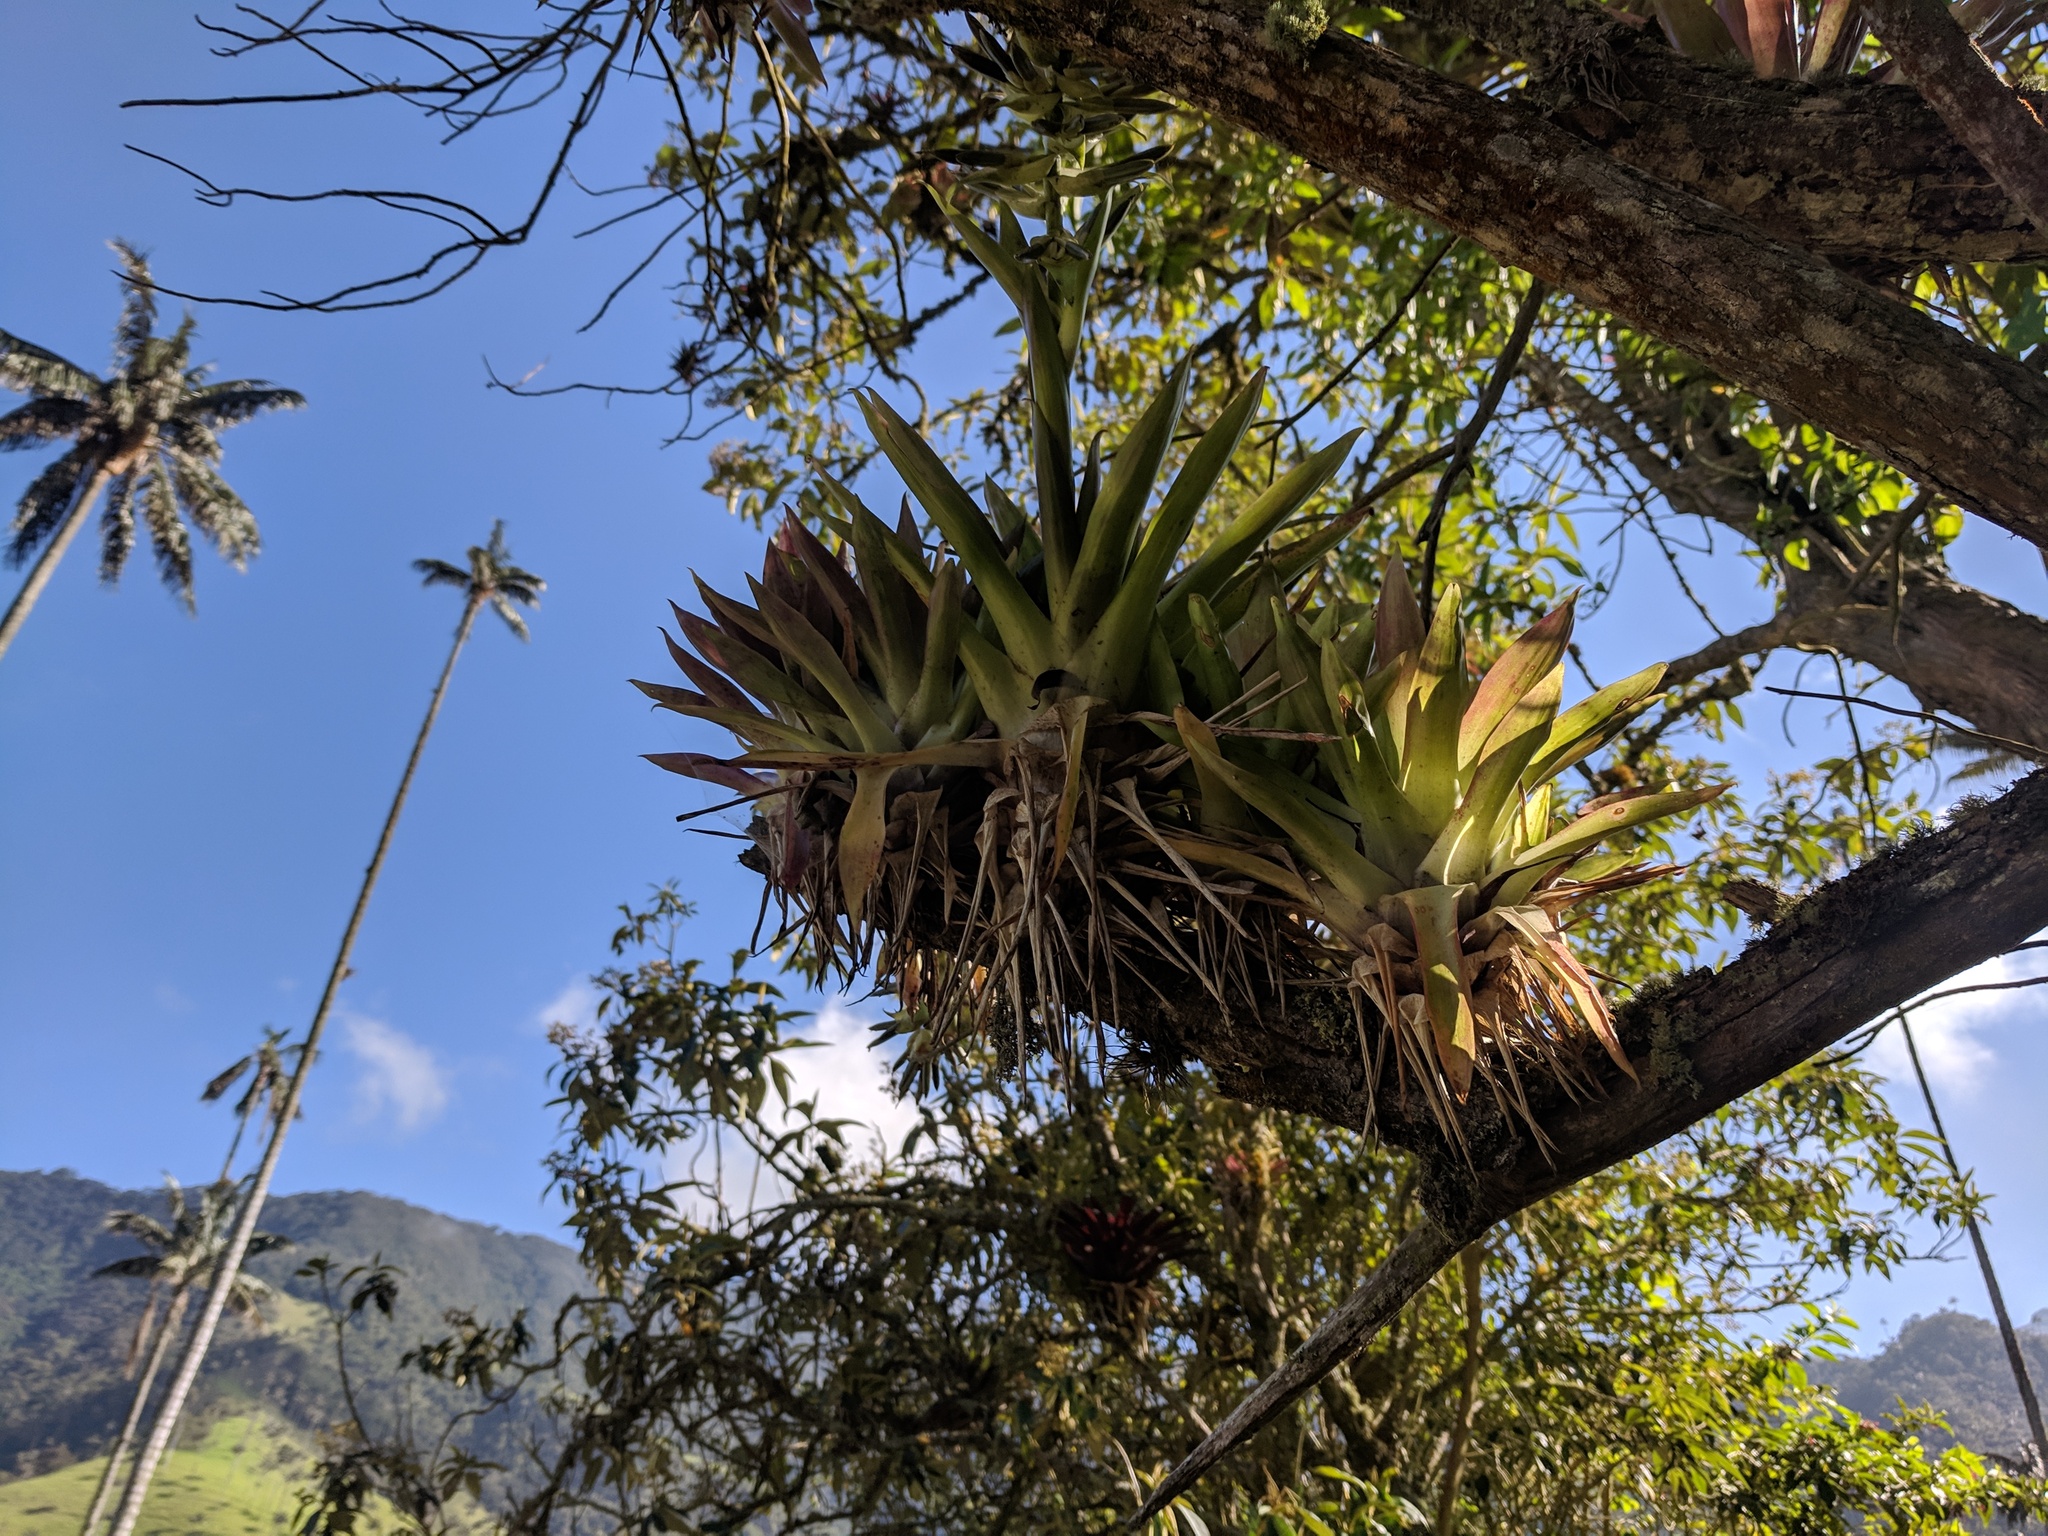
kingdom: Plantae
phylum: Tracheophyta
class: Liliopsida
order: Poales
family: Bromeliaceae
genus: Tillandsia
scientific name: Tillandsia biflora
